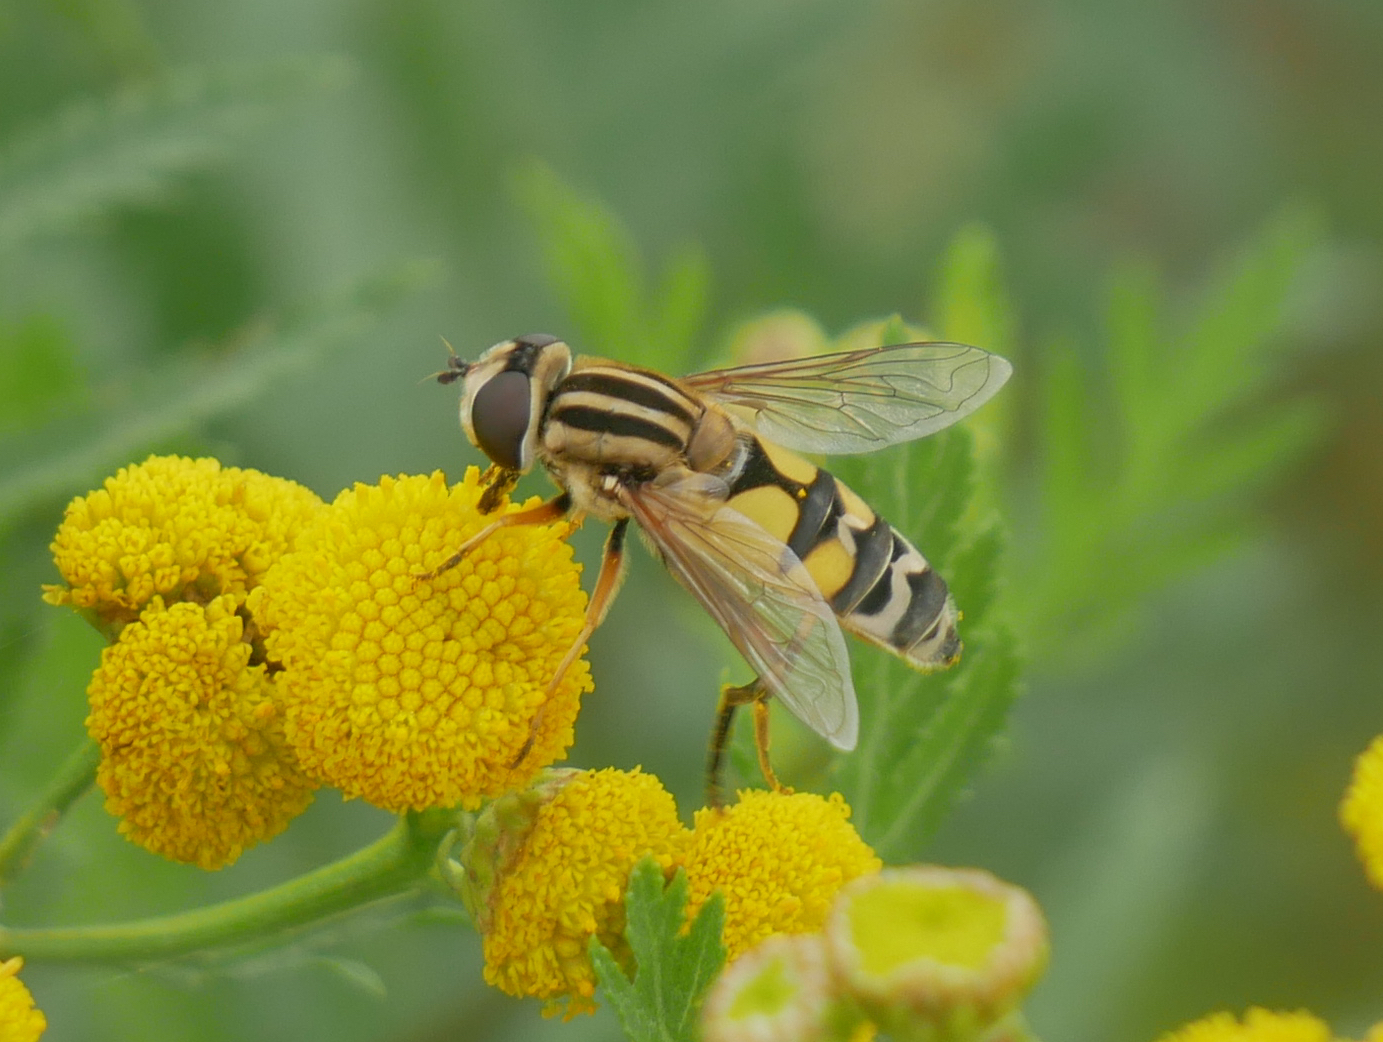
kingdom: Animalia
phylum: Arthropoda
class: Insecta
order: Diptera
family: Syrphidae
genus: Helophilus
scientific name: Helophilus trivittatus
